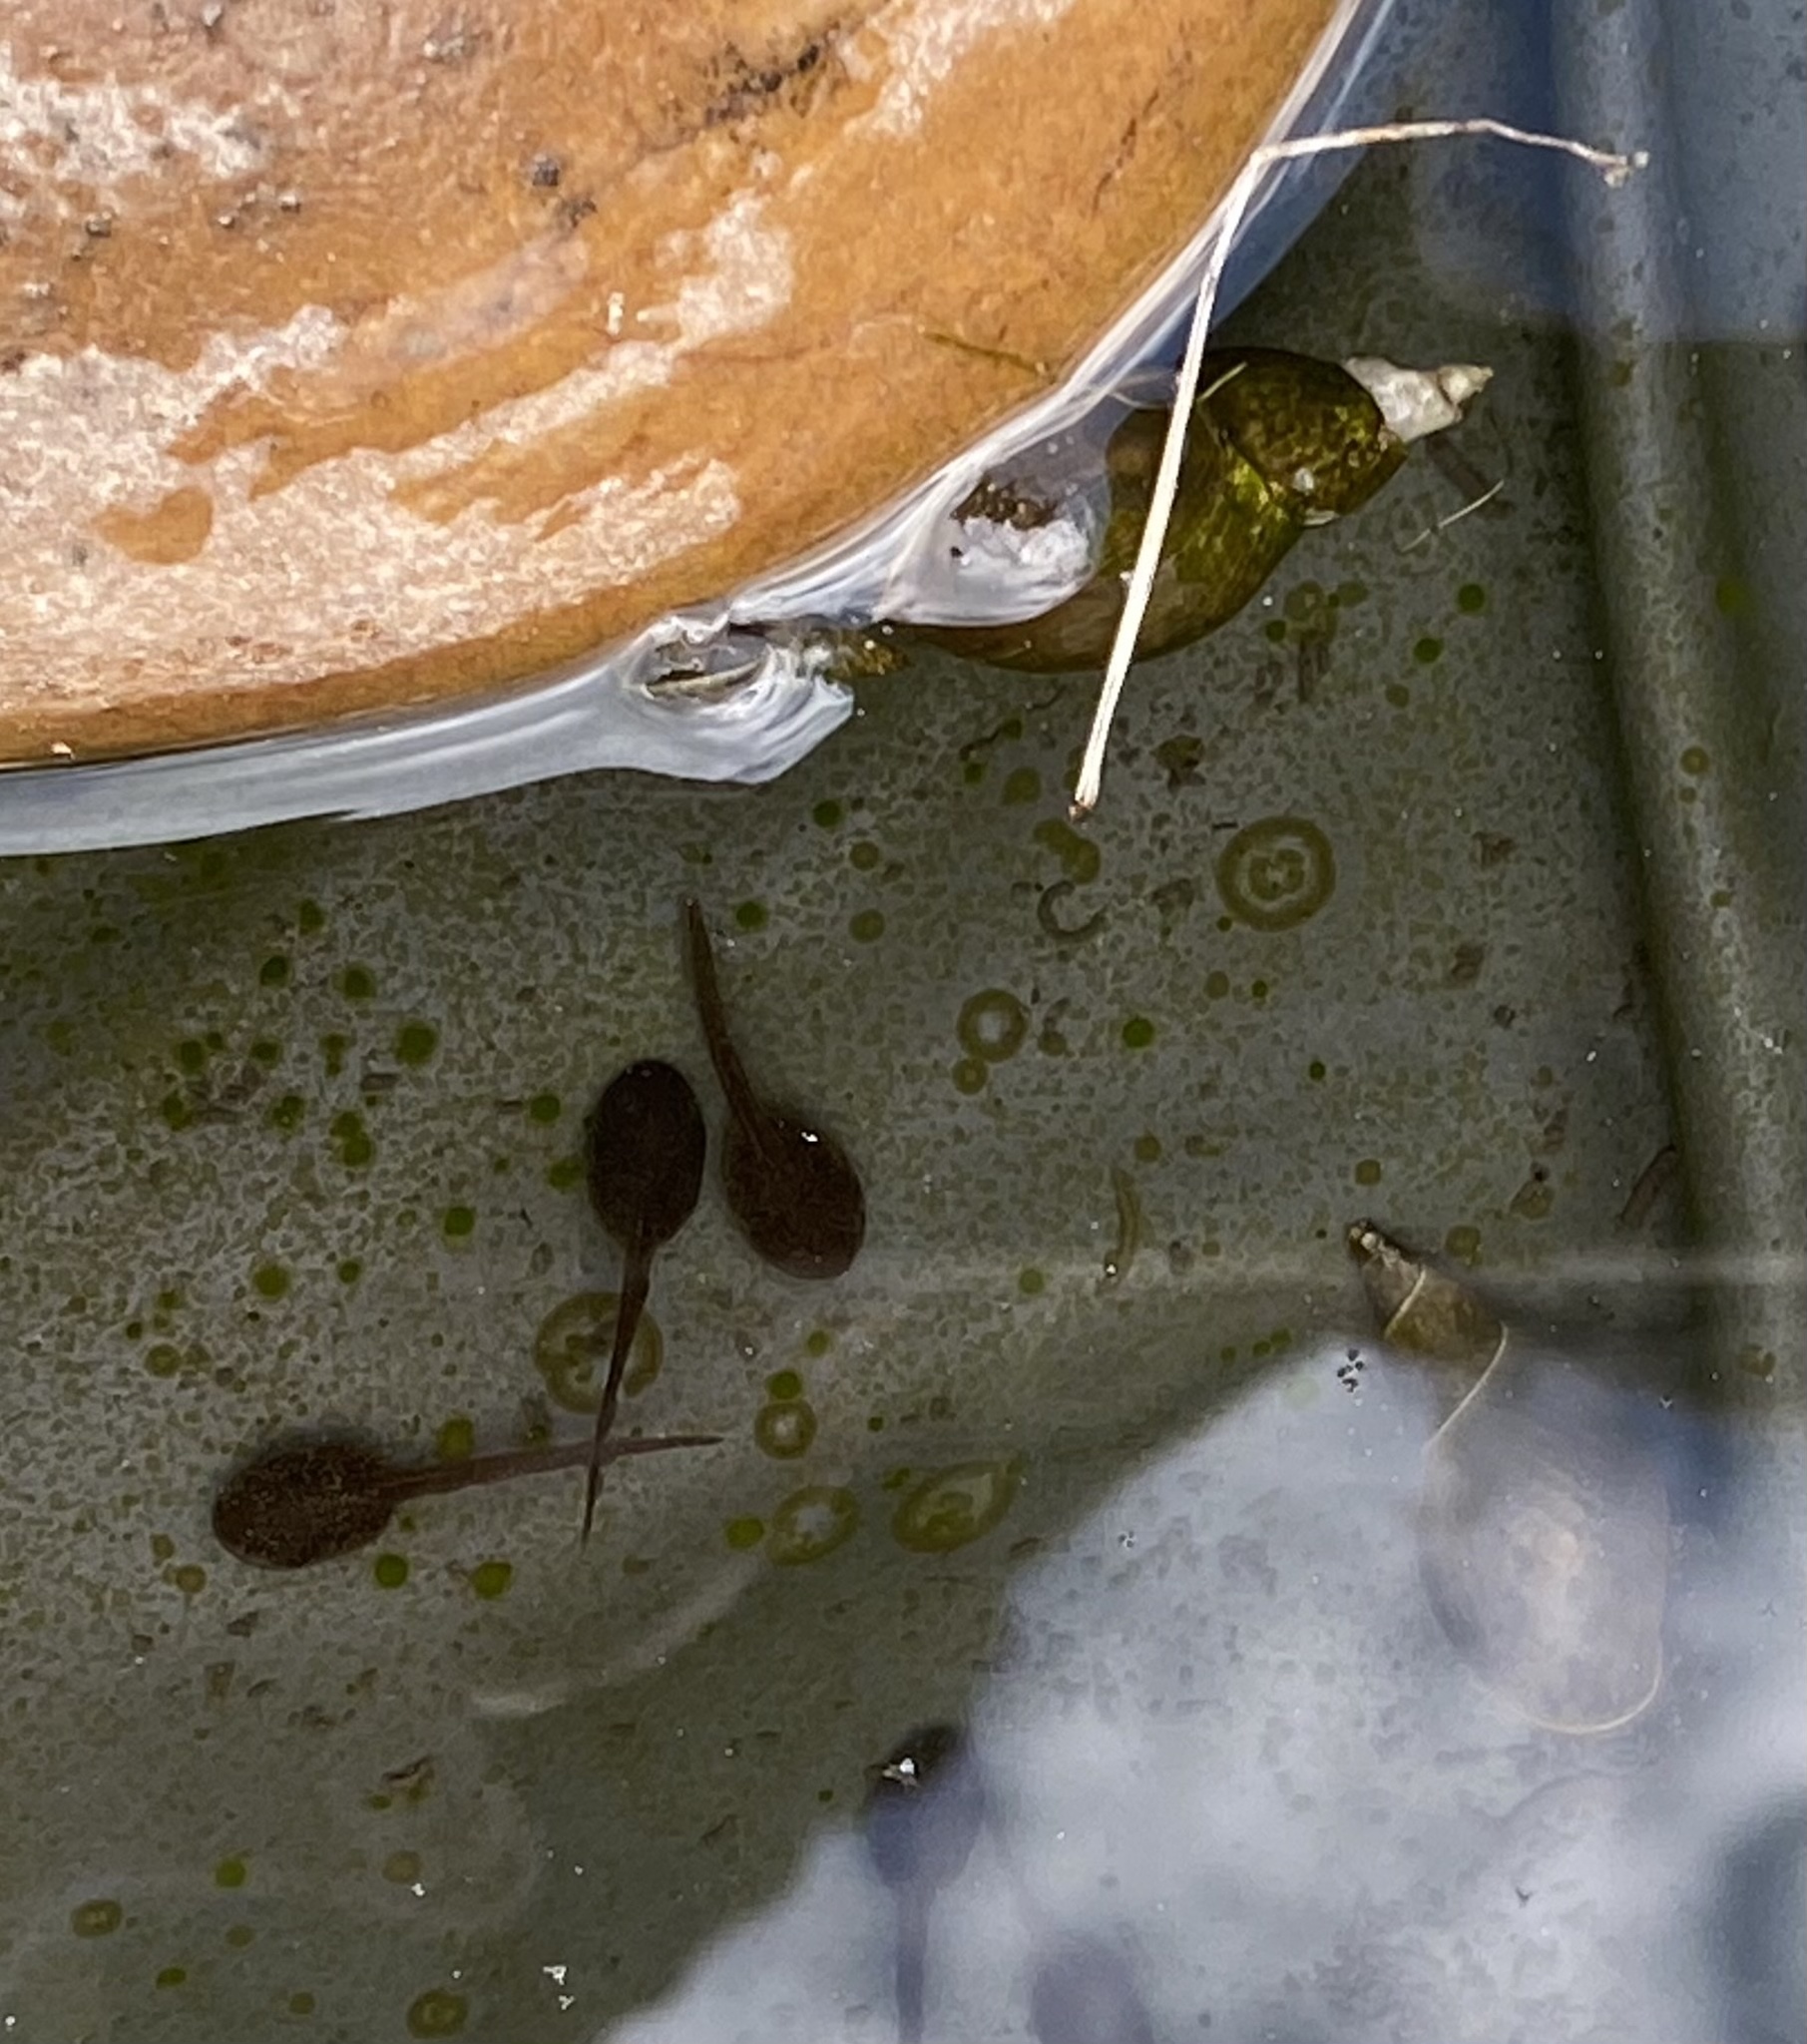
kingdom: Animalia
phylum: Chordata
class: Amphibia
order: Anura
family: Ranidae
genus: Rana
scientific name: Rana temporaria
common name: Common frog
